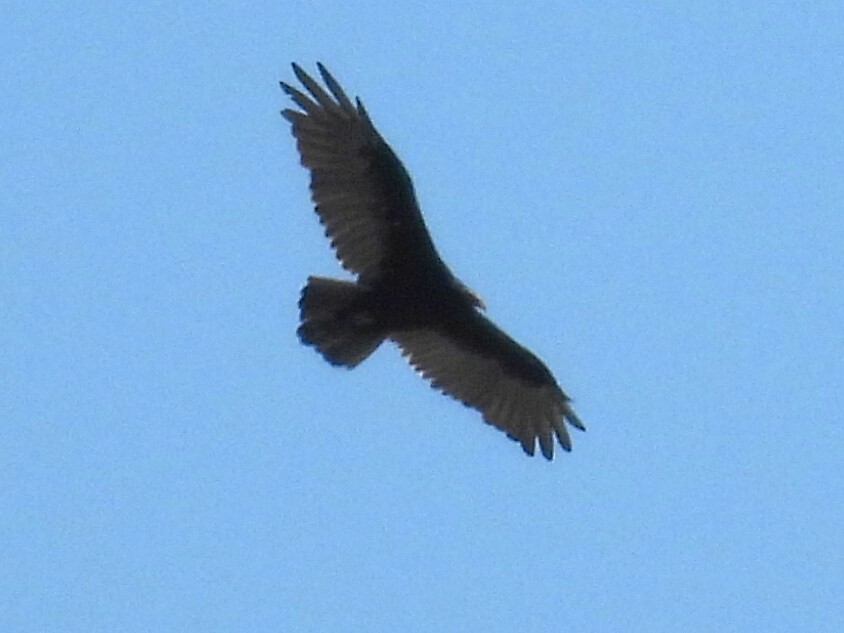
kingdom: Animalia
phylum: Chordata
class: Aves
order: Accipitriformes
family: Cathartidae
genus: Cathartes
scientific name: Cathartes aura
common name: Turkey vulture
